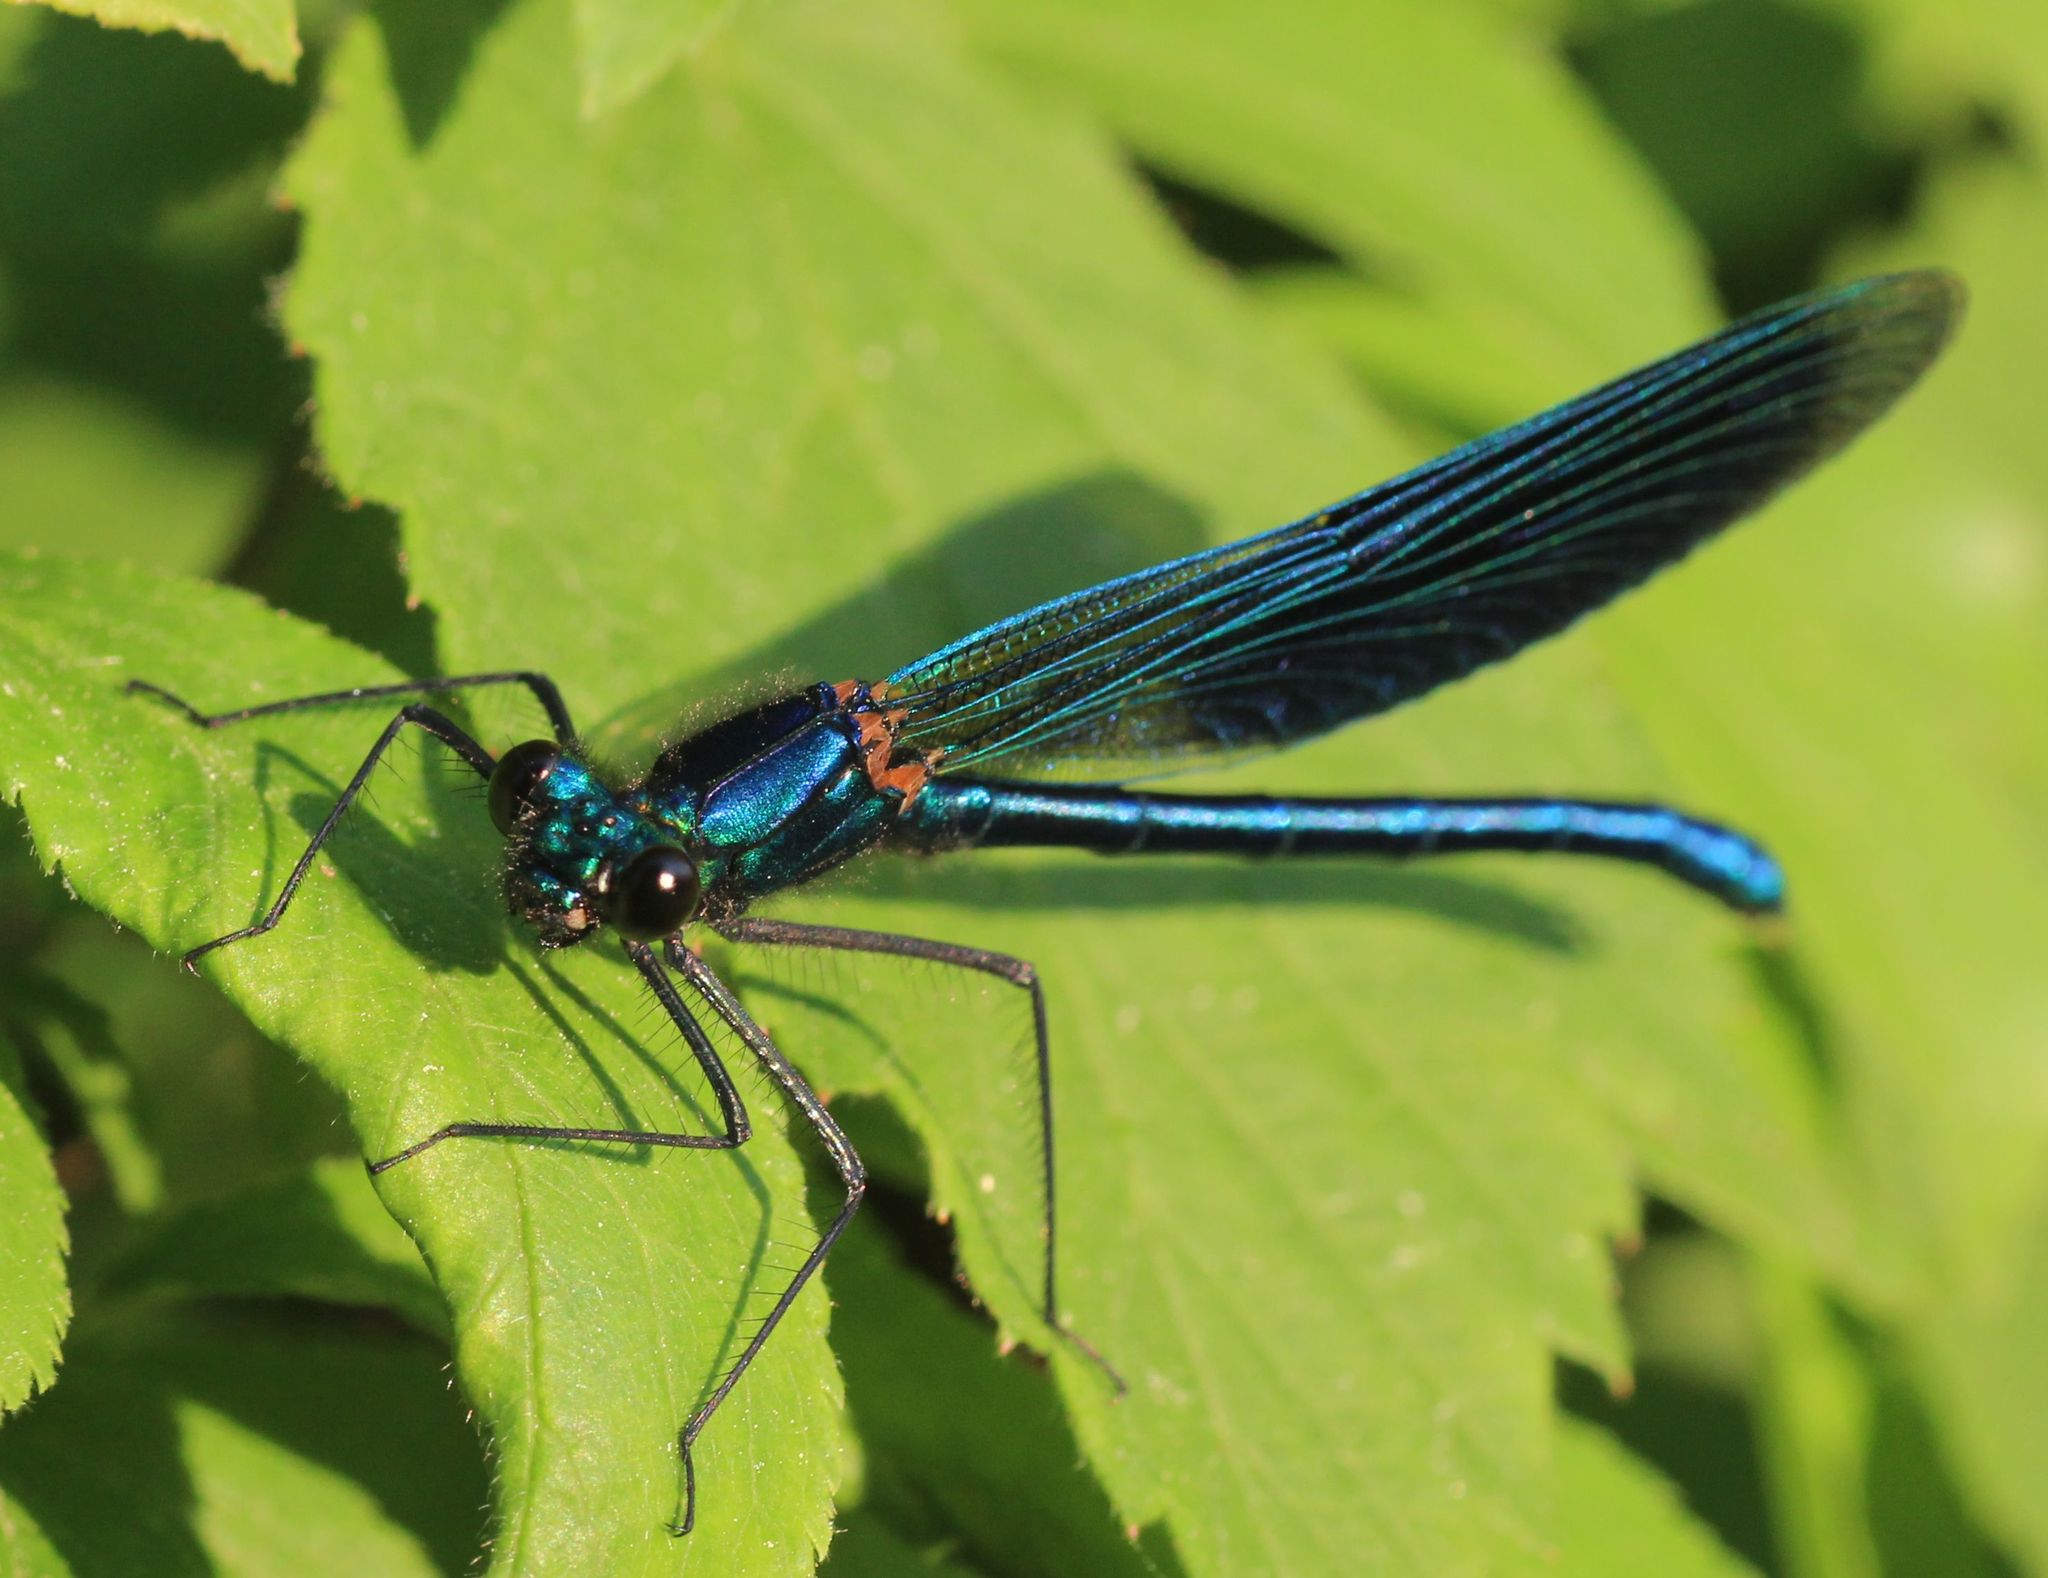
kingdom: Animalia
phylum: Arthropoda
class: Insecta
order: Odonata
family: Calopterygidae
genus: Calopteryx
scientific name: Calopteryx splendens
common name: Banded demoiselle
